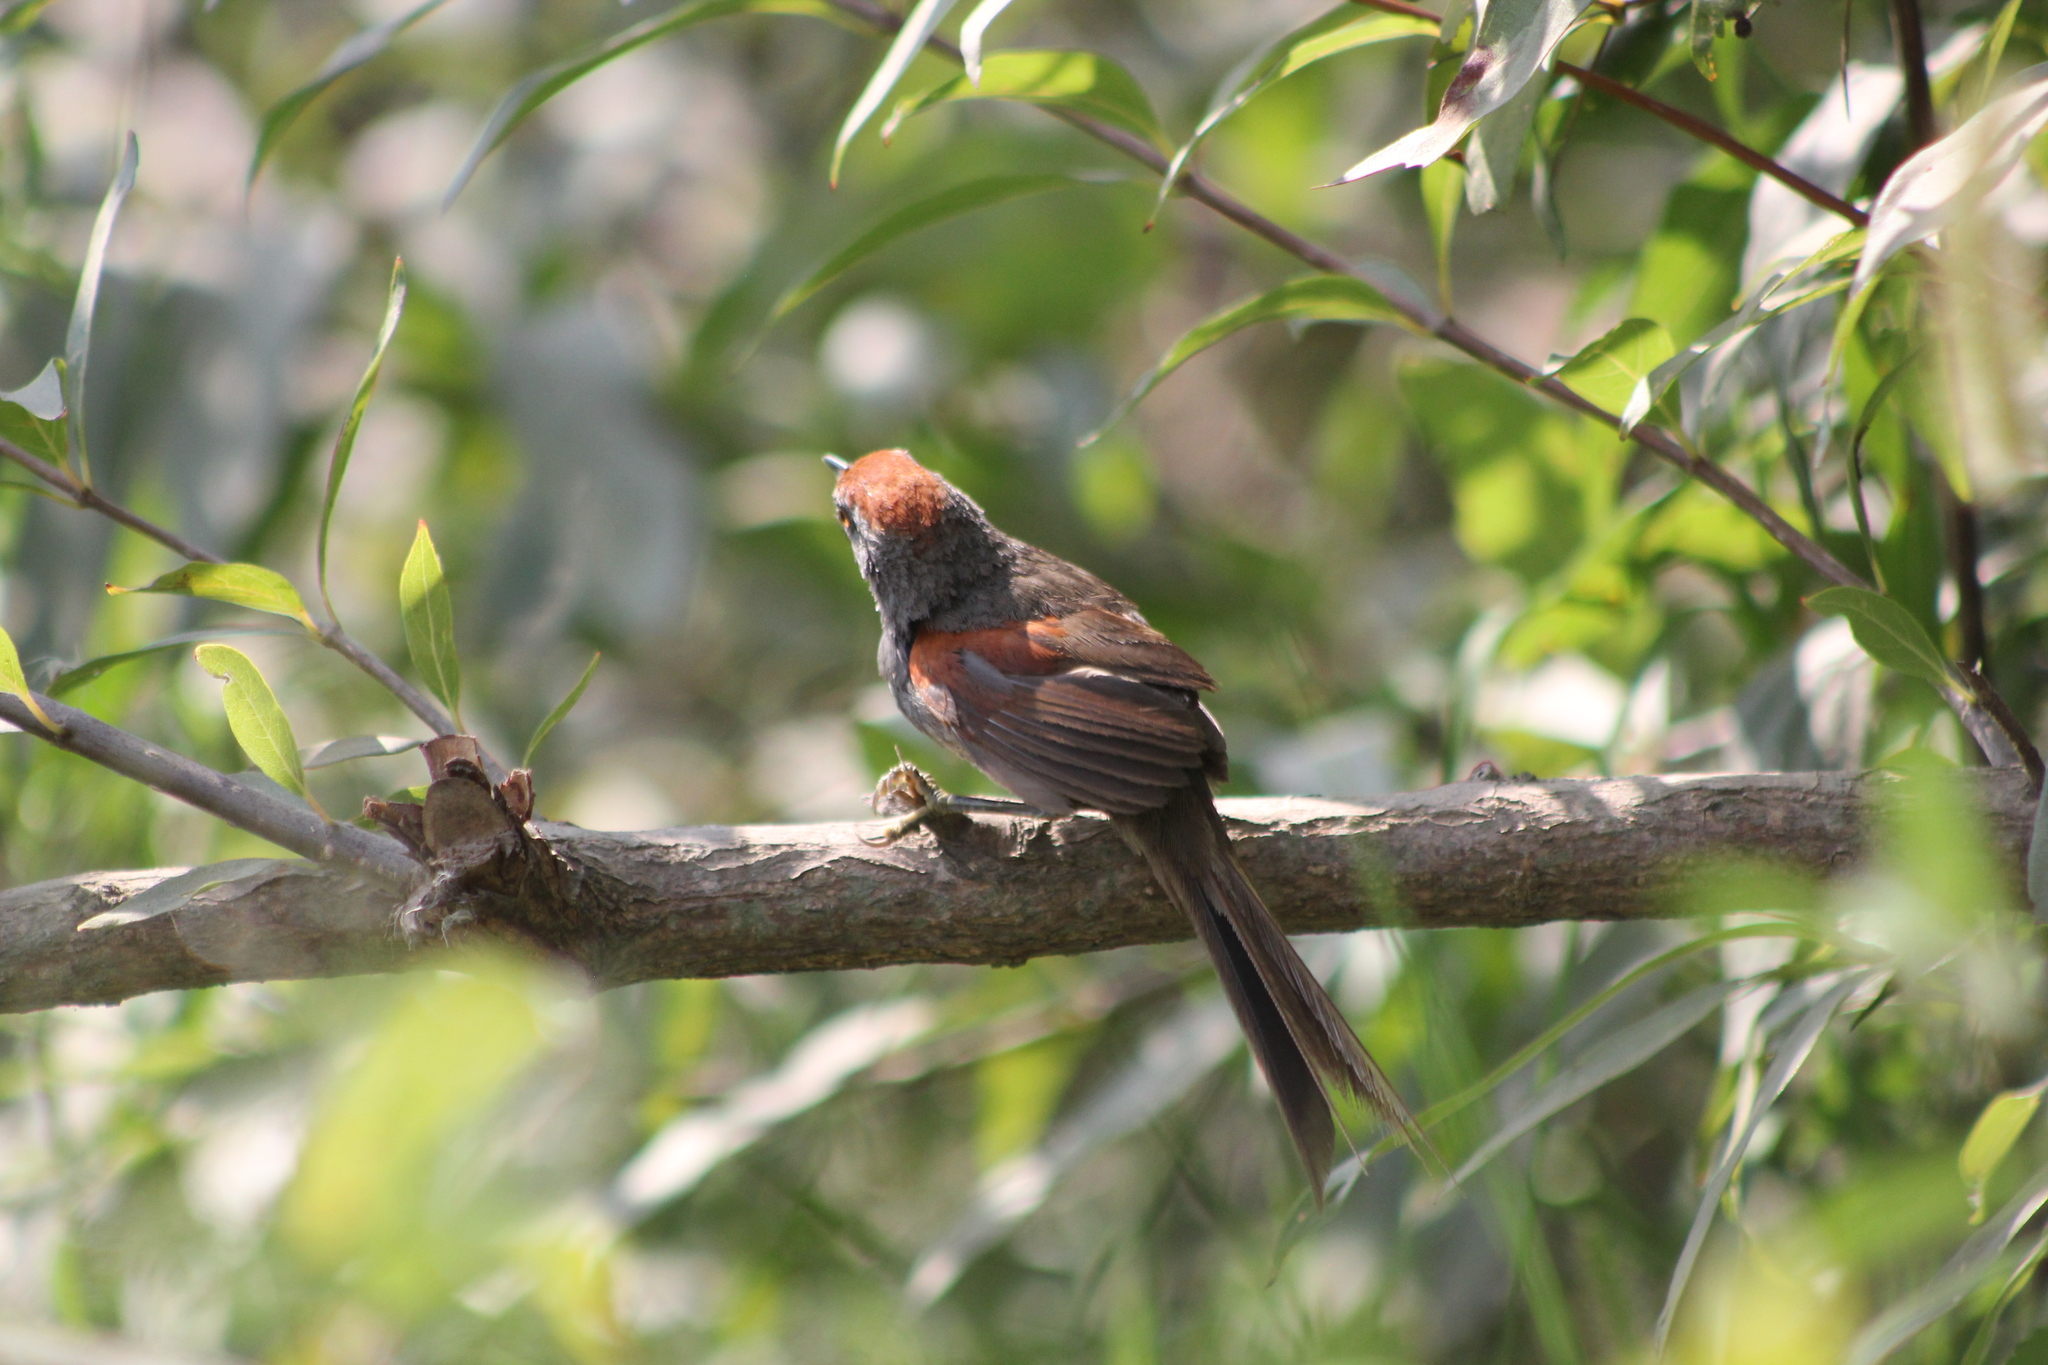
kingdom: Animalia
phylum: Chordata
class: Aves
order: Passeriformes
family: Furnariidae
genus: Synallaxis
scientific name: Synallaxis spixi
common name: Spix's spinetail
